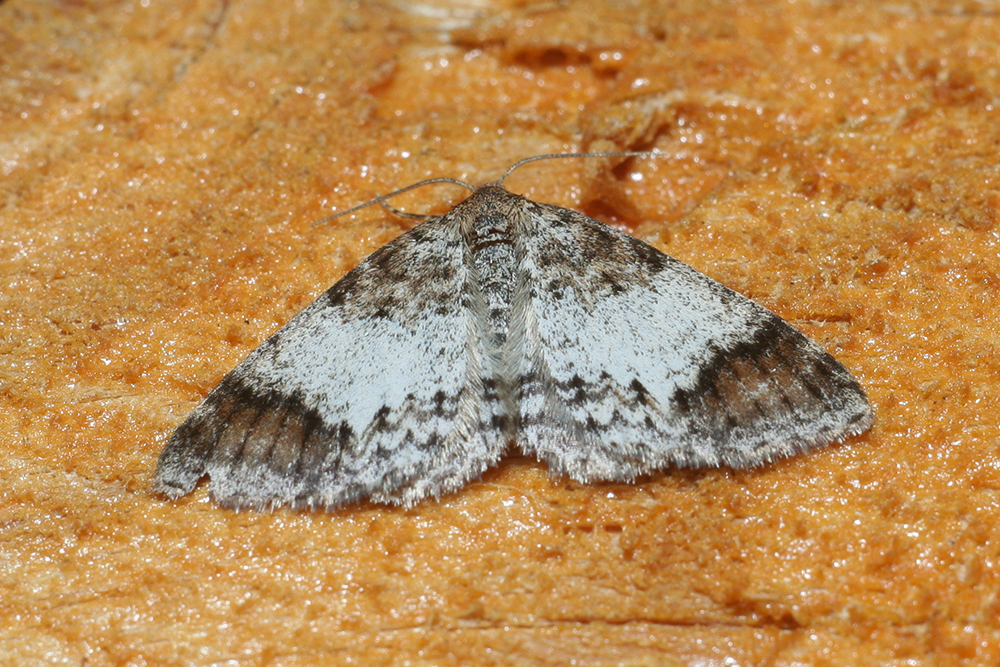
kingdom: Animalia
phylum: Arthropoda
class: Insecta
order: Lepidoptera
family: Geometridae
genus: Venusia
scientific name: Venusia blomeri
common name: Blomer's rivulet
